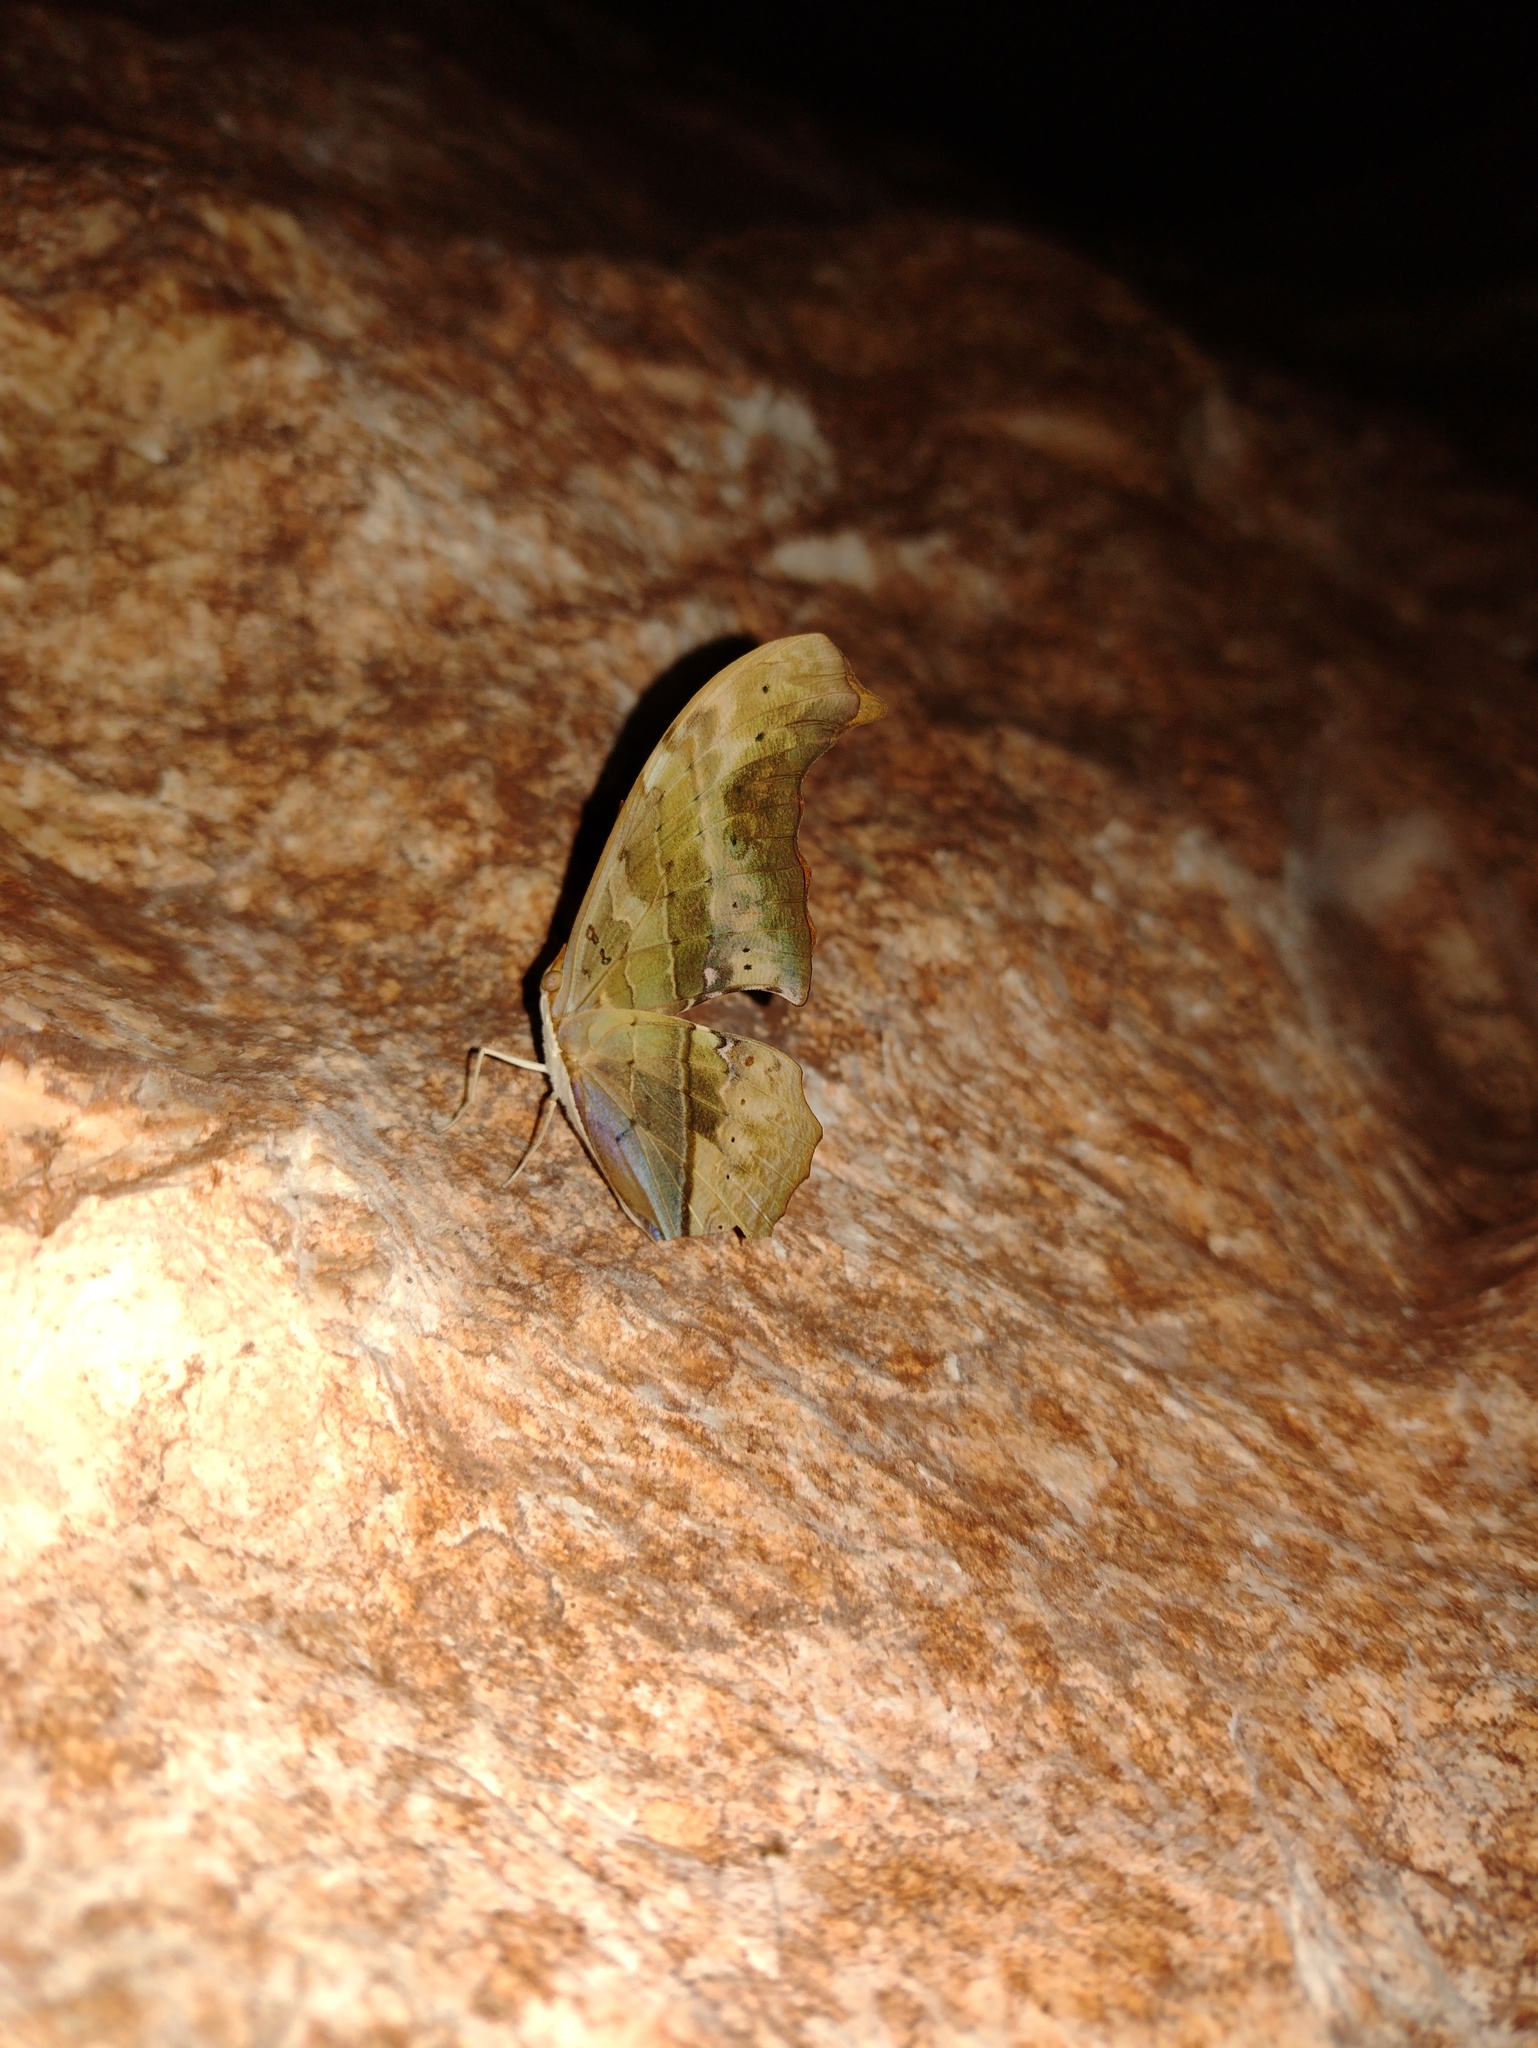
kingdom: Animalia
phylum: Arthropoda
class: Insecta
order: Lepidoptera
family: Nymphalidae
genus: Marpesia
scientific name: Marpesia petreus
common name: Red dagger wing
